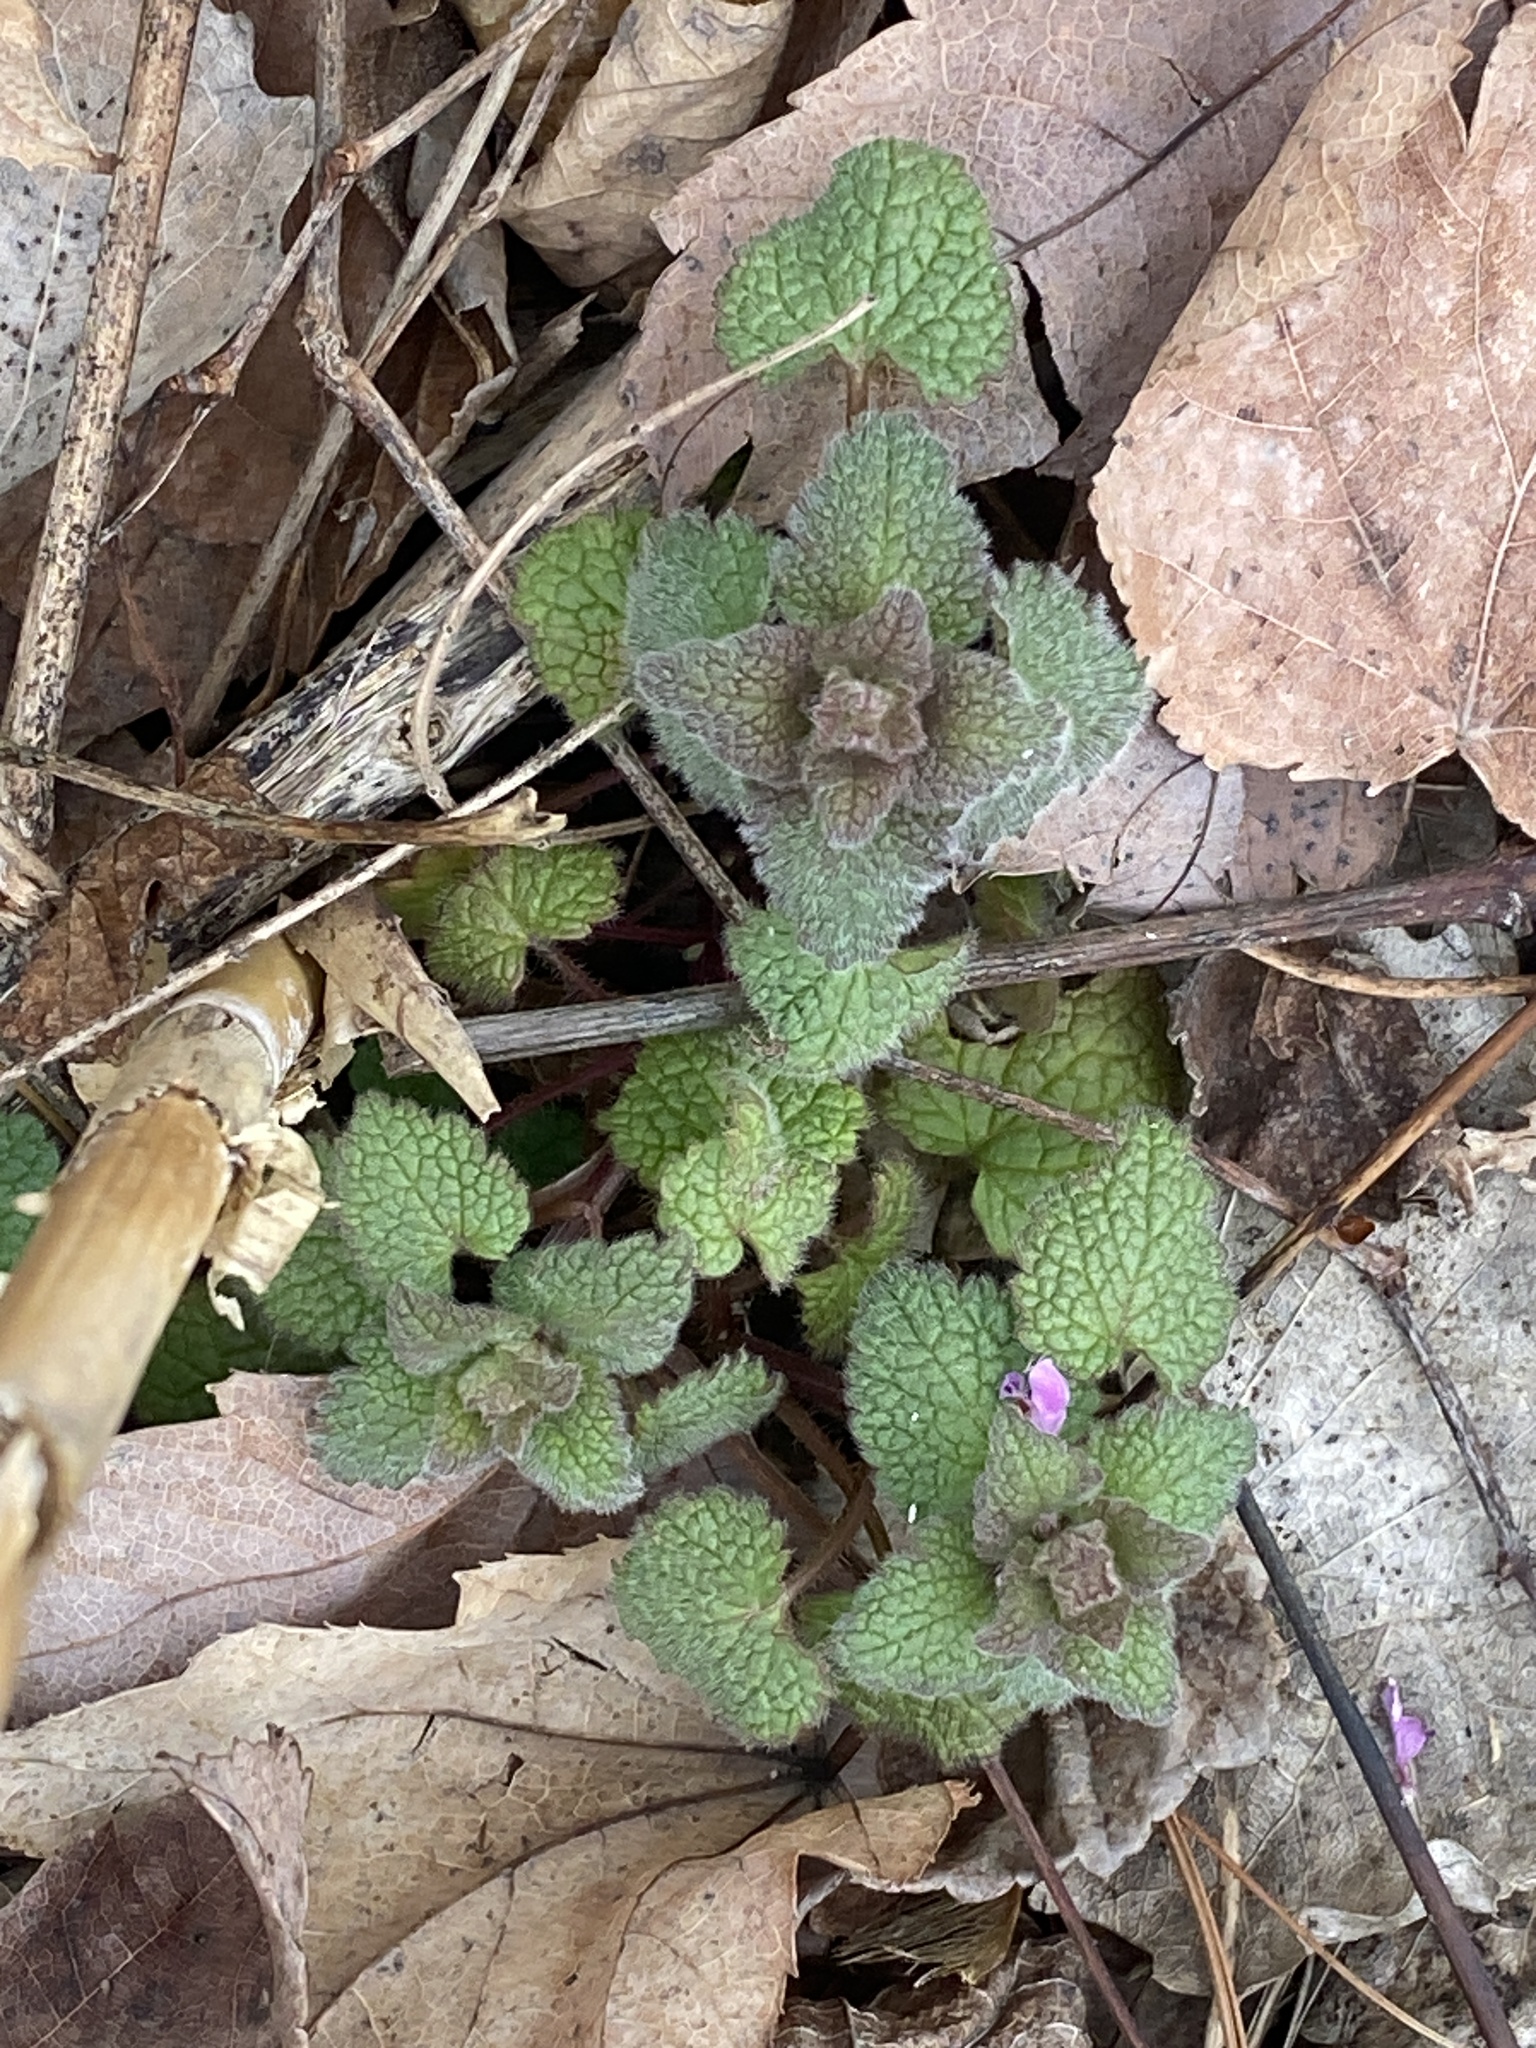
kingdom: Plantae
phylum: Tracheophyta
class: Magnoliopsida
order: Lamiales
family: Lamiaceae
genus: Lamium
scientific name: Lamium purpureum
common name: Red dead-nettle
